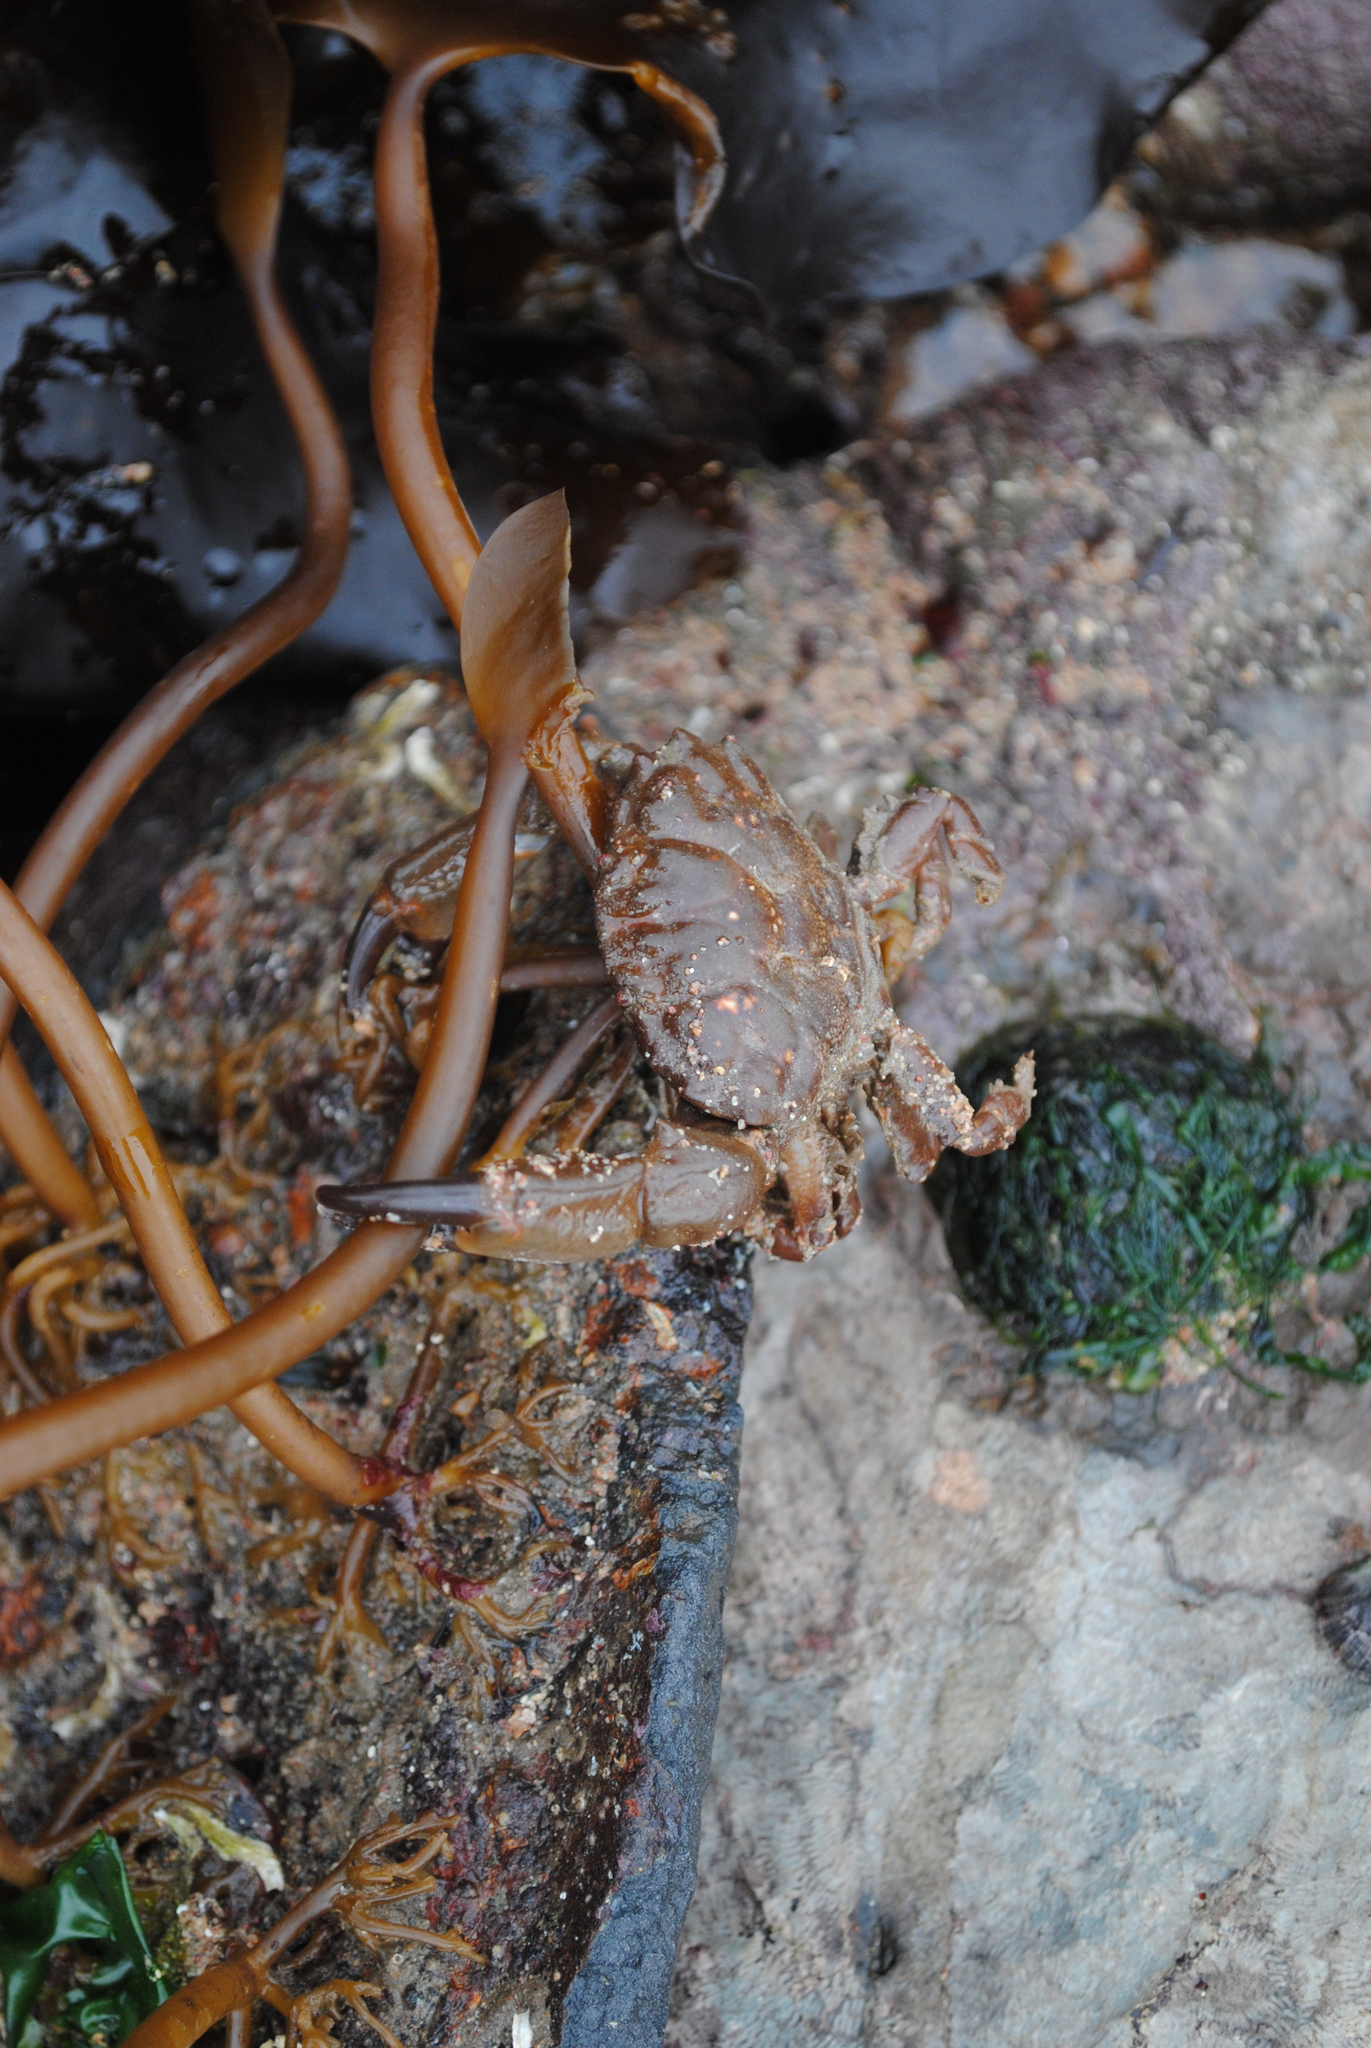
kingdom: Animalia
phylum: Arthropoda
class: Malacostraca
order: Decapoda
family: Xanthidae
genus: Xantho
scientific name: Xantho hydrophilus
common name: Montagu's crab
